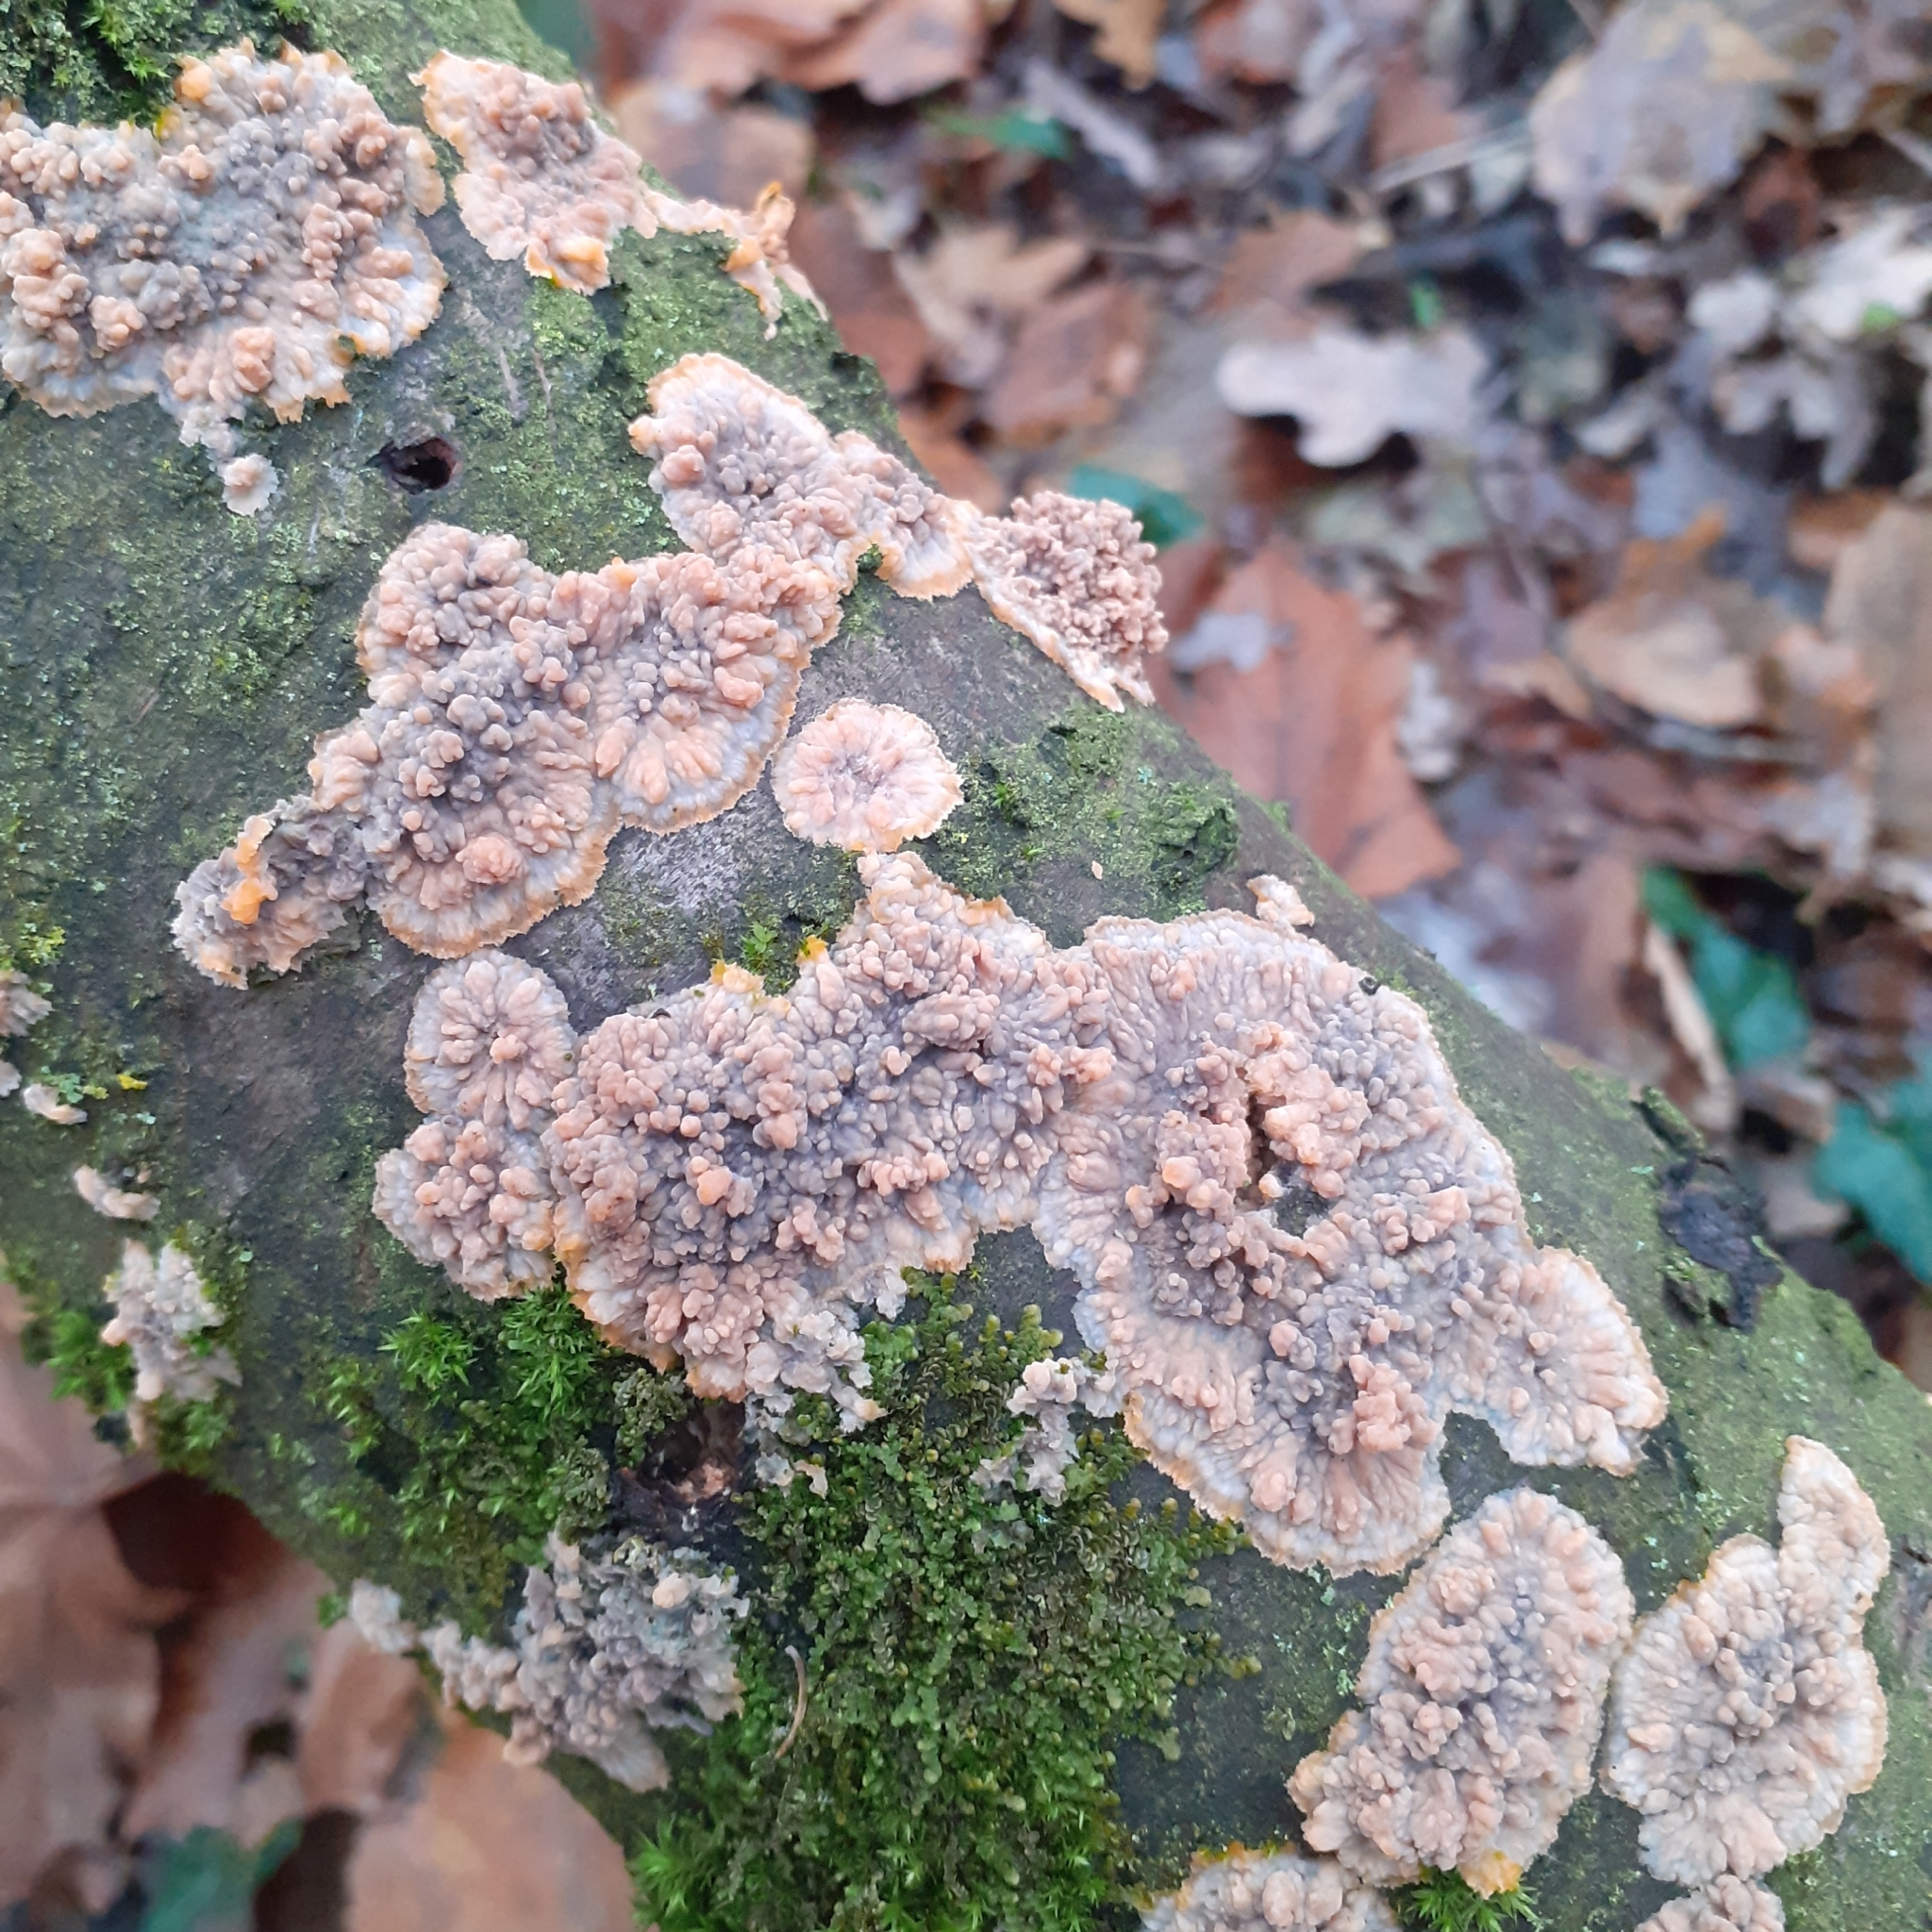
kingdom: Fungi
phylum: Basidiomycota
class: Agaricomycetes
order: Polyporales
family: Meruliaceae
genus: Phlebia
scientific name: Phlebia radiata
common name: Wrinkled crust
